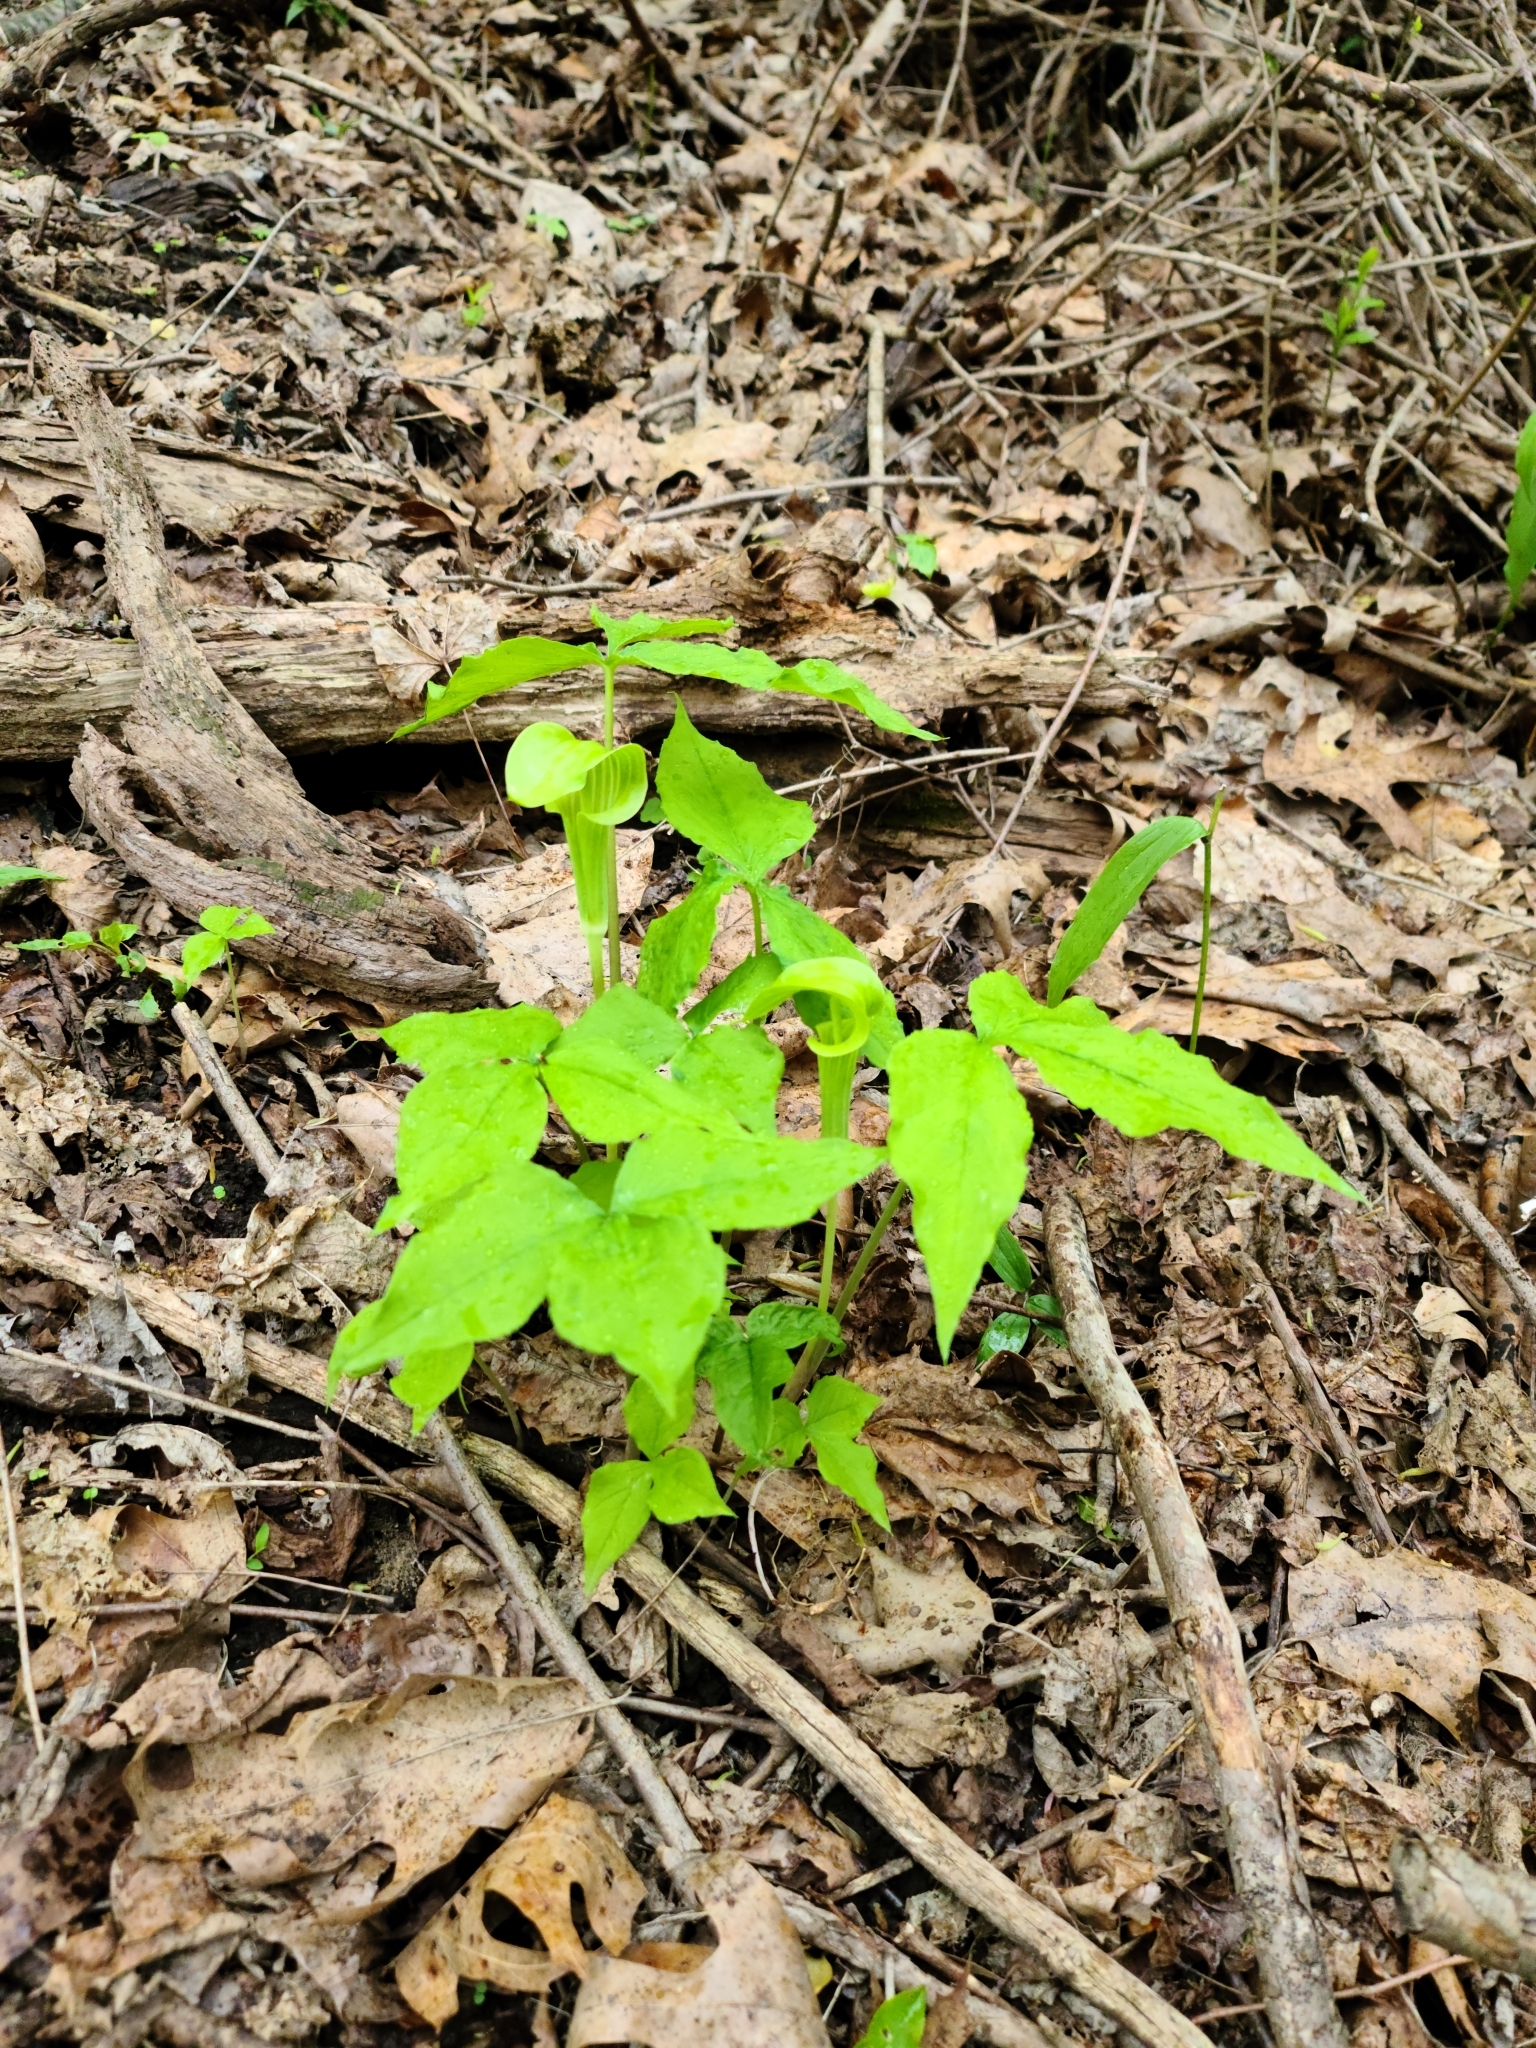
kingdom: Plantae
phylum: Tracheophyta
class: Liliopsida
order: Alismatales
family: Araceae
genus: Arisaema
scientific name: Arisaema triphyllum
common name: Jack-in-the-pulpit
